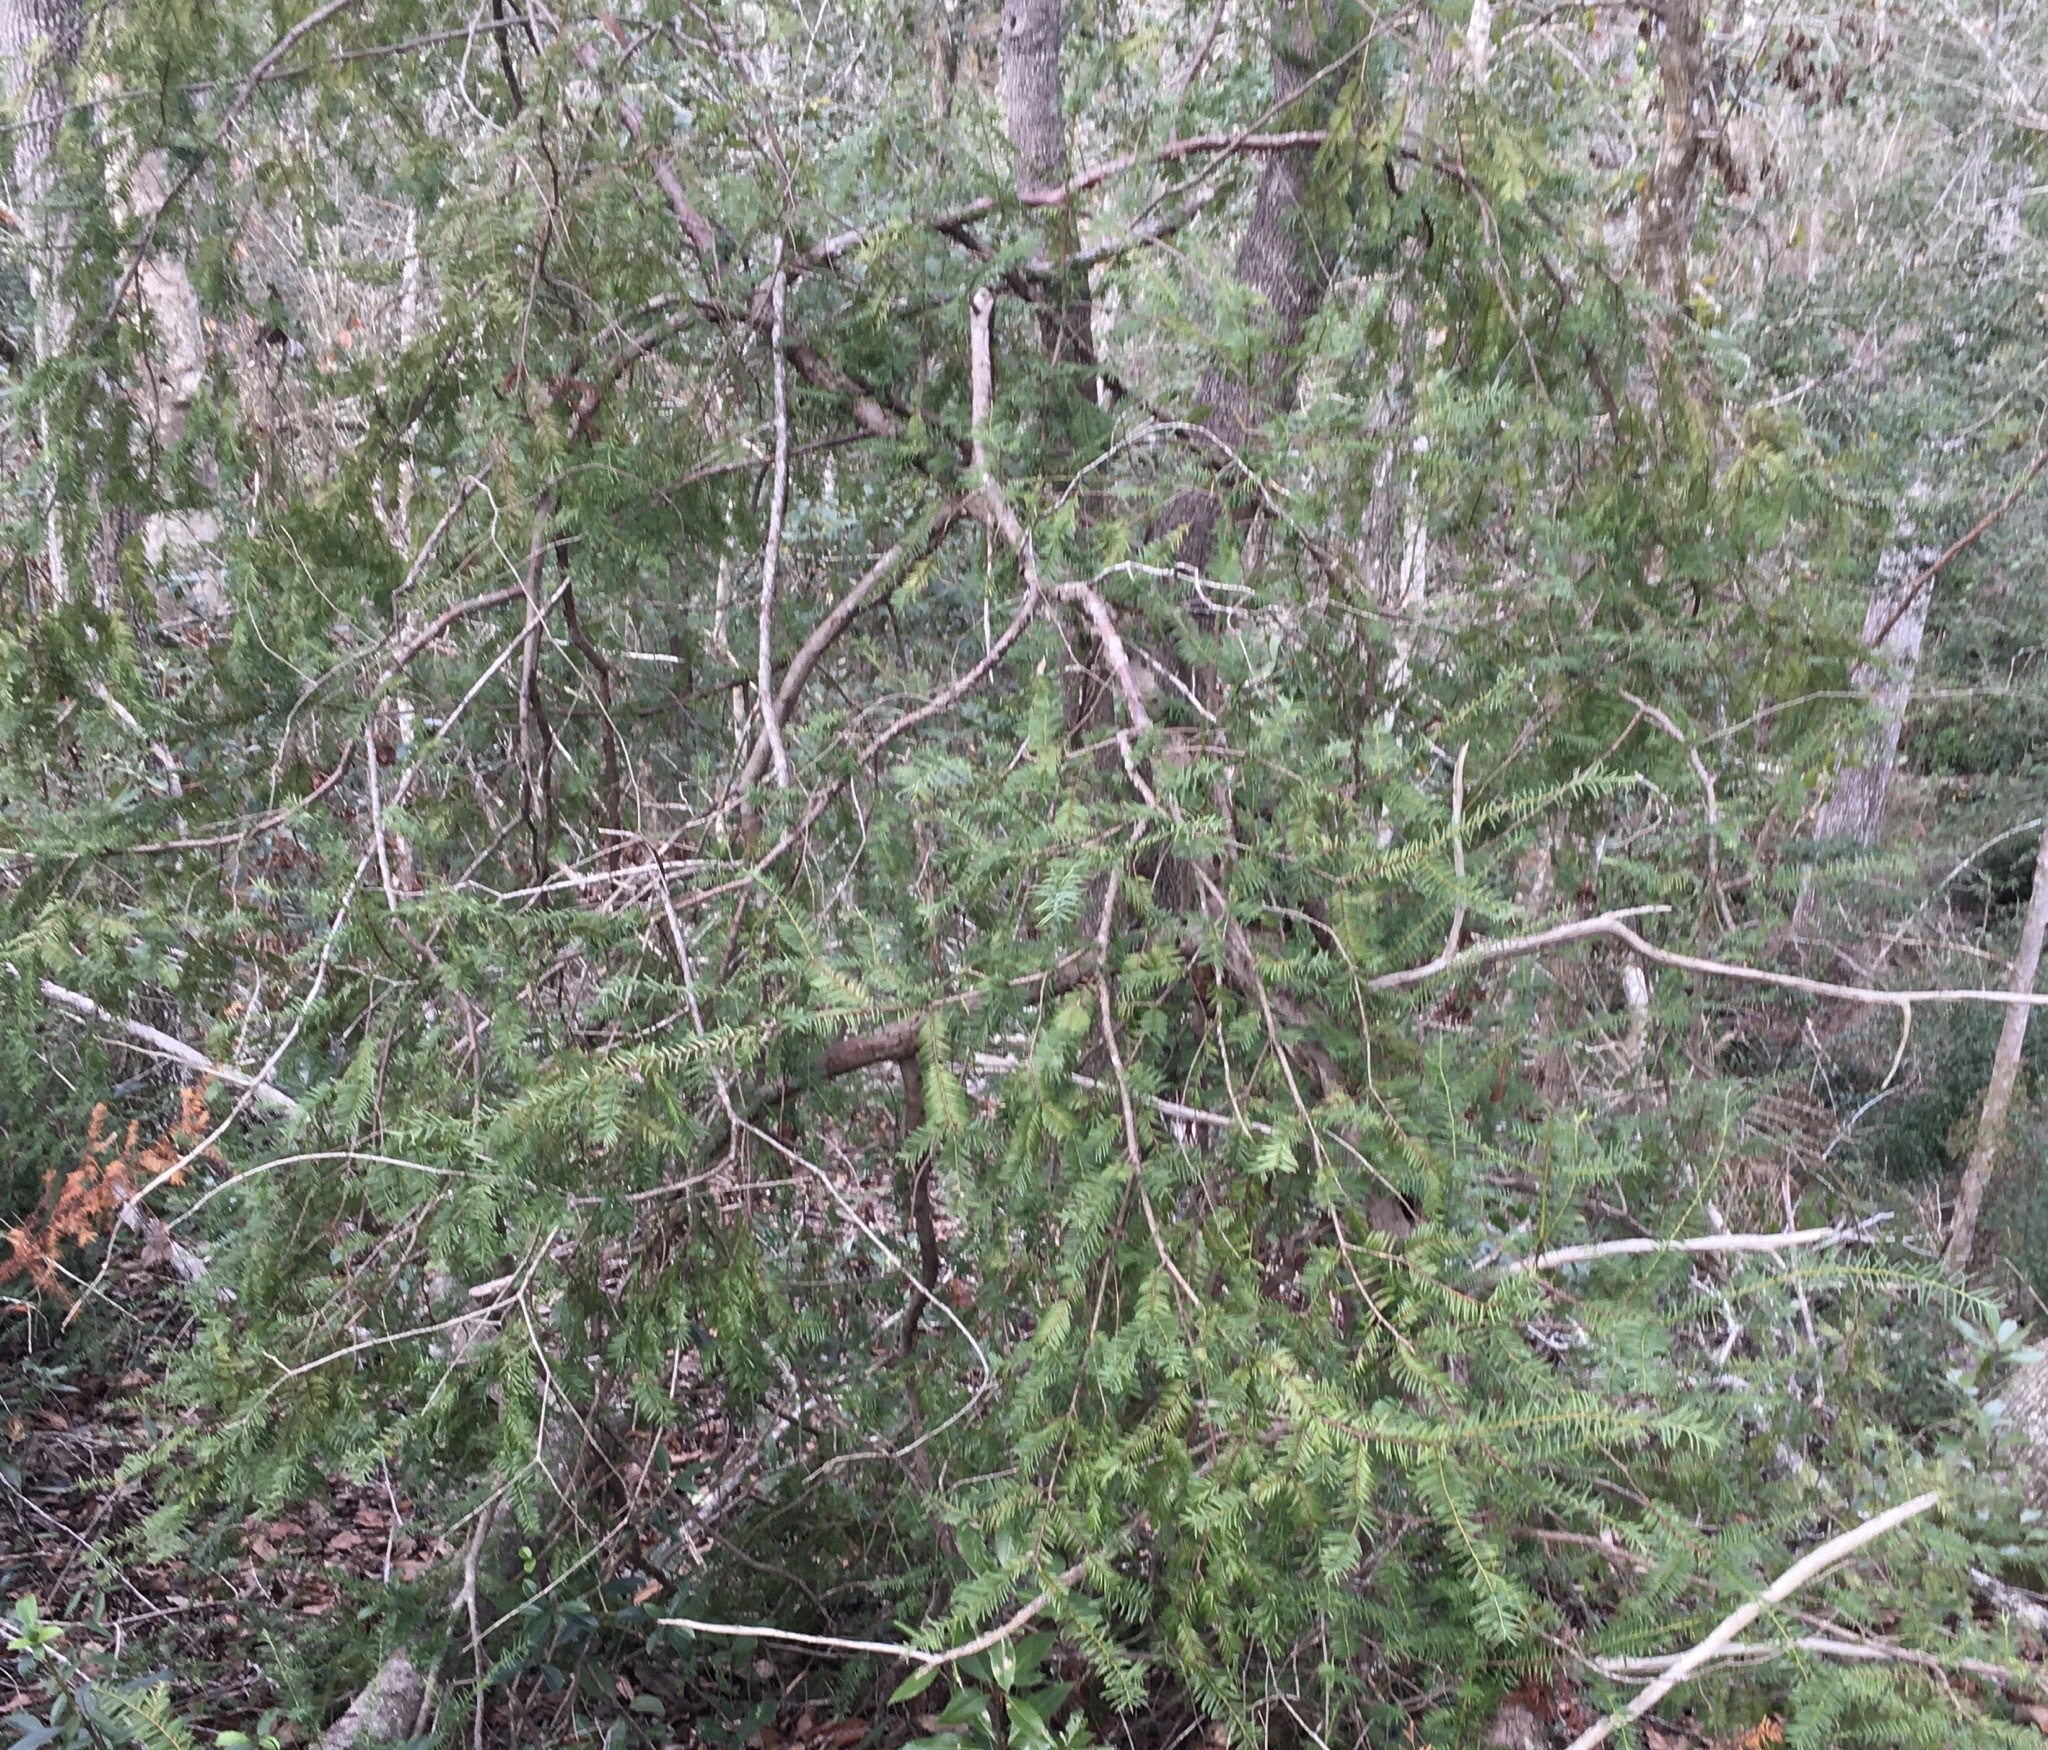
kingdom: Plantae
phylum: Tracheophyta
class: Pinopsida
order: Pinales
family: Taxaceae
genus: Taxus
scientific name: Taxus floridana
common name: Florida yew
